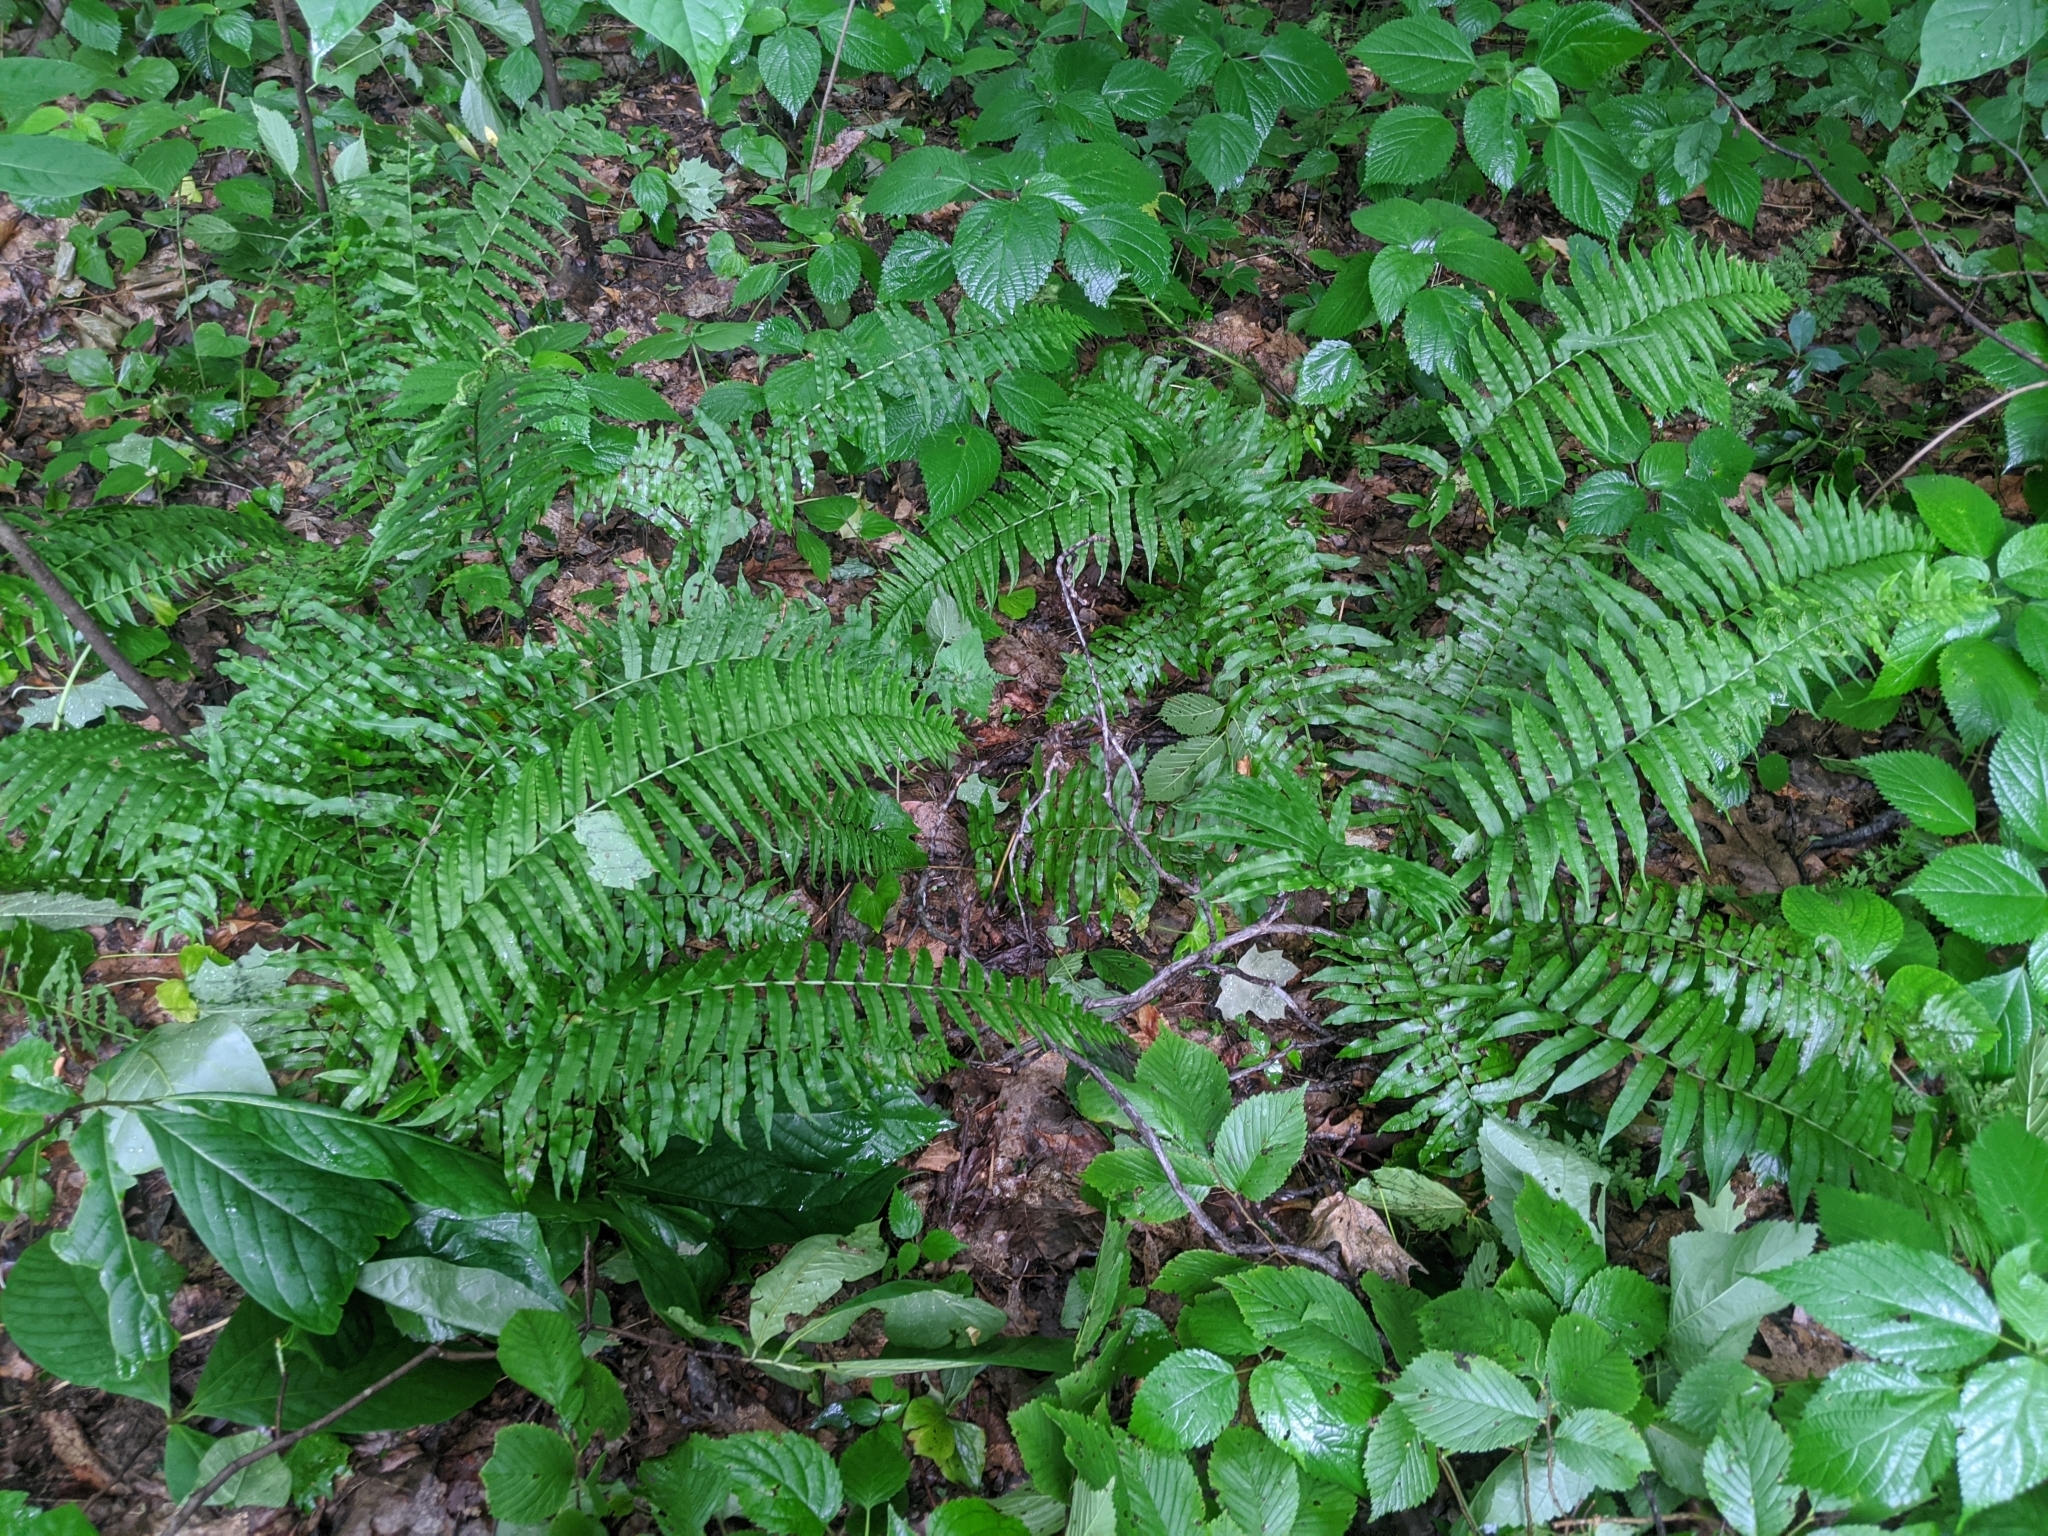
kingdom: Plantae
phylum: Tracheophyta
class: Polypodiopsida
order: Polypodiales
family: Diplaziopsidaceae
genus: Homalosorus
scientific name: Homalosorus pycnocarpos
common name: Glade fern
